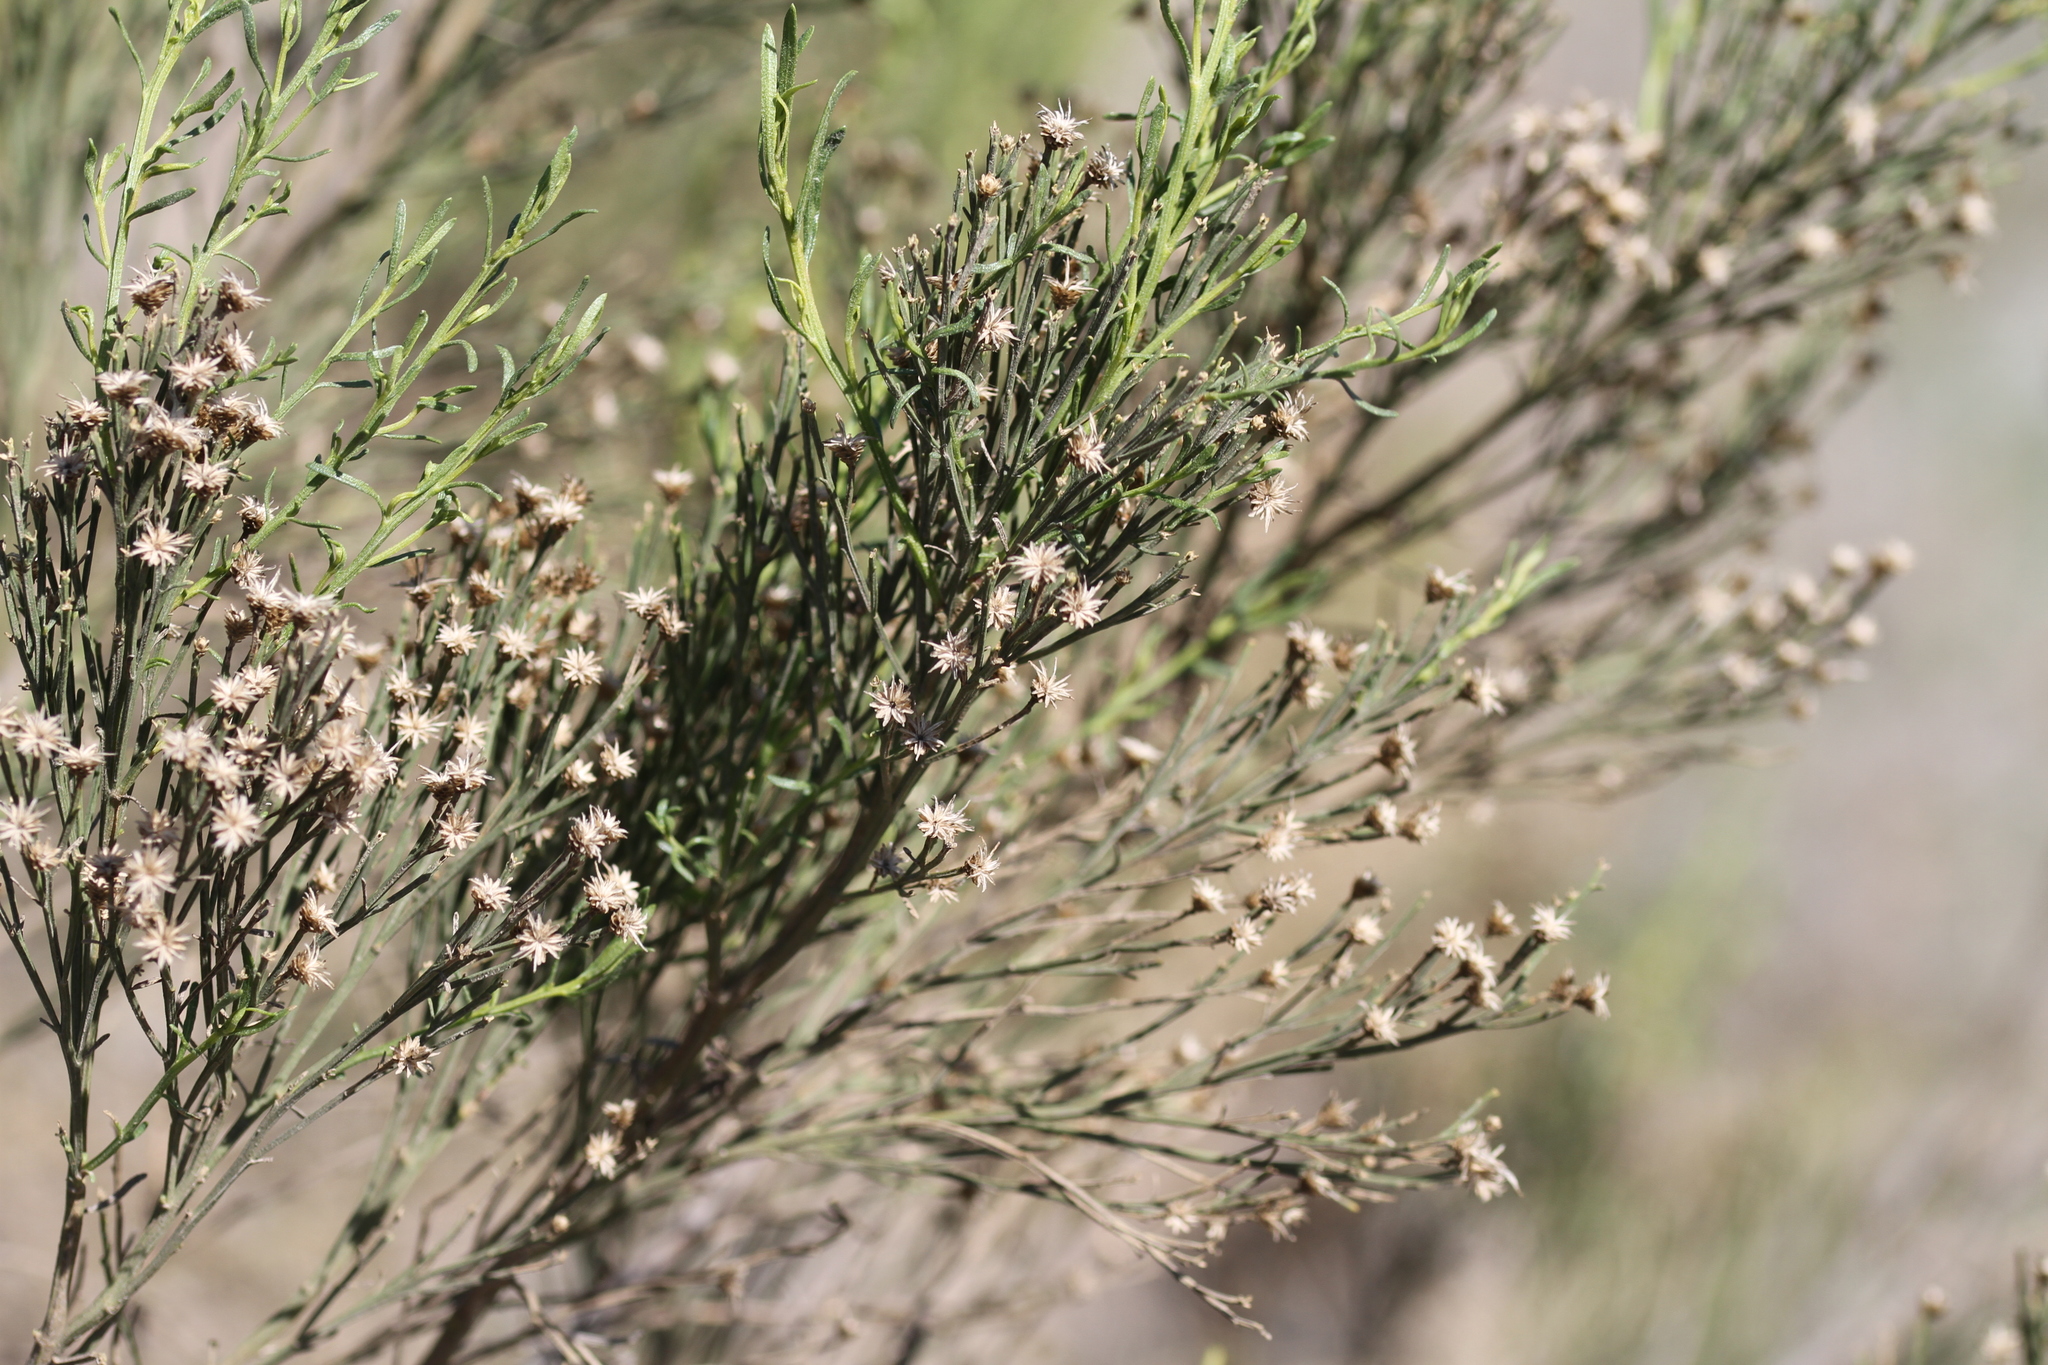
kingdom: Plantae
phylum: Tracheophyta
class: Magnoliopsida
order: Asterales
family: Asteraceae
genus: Baccharis
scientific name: Baccharis sarothroides
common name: Desert-broom
